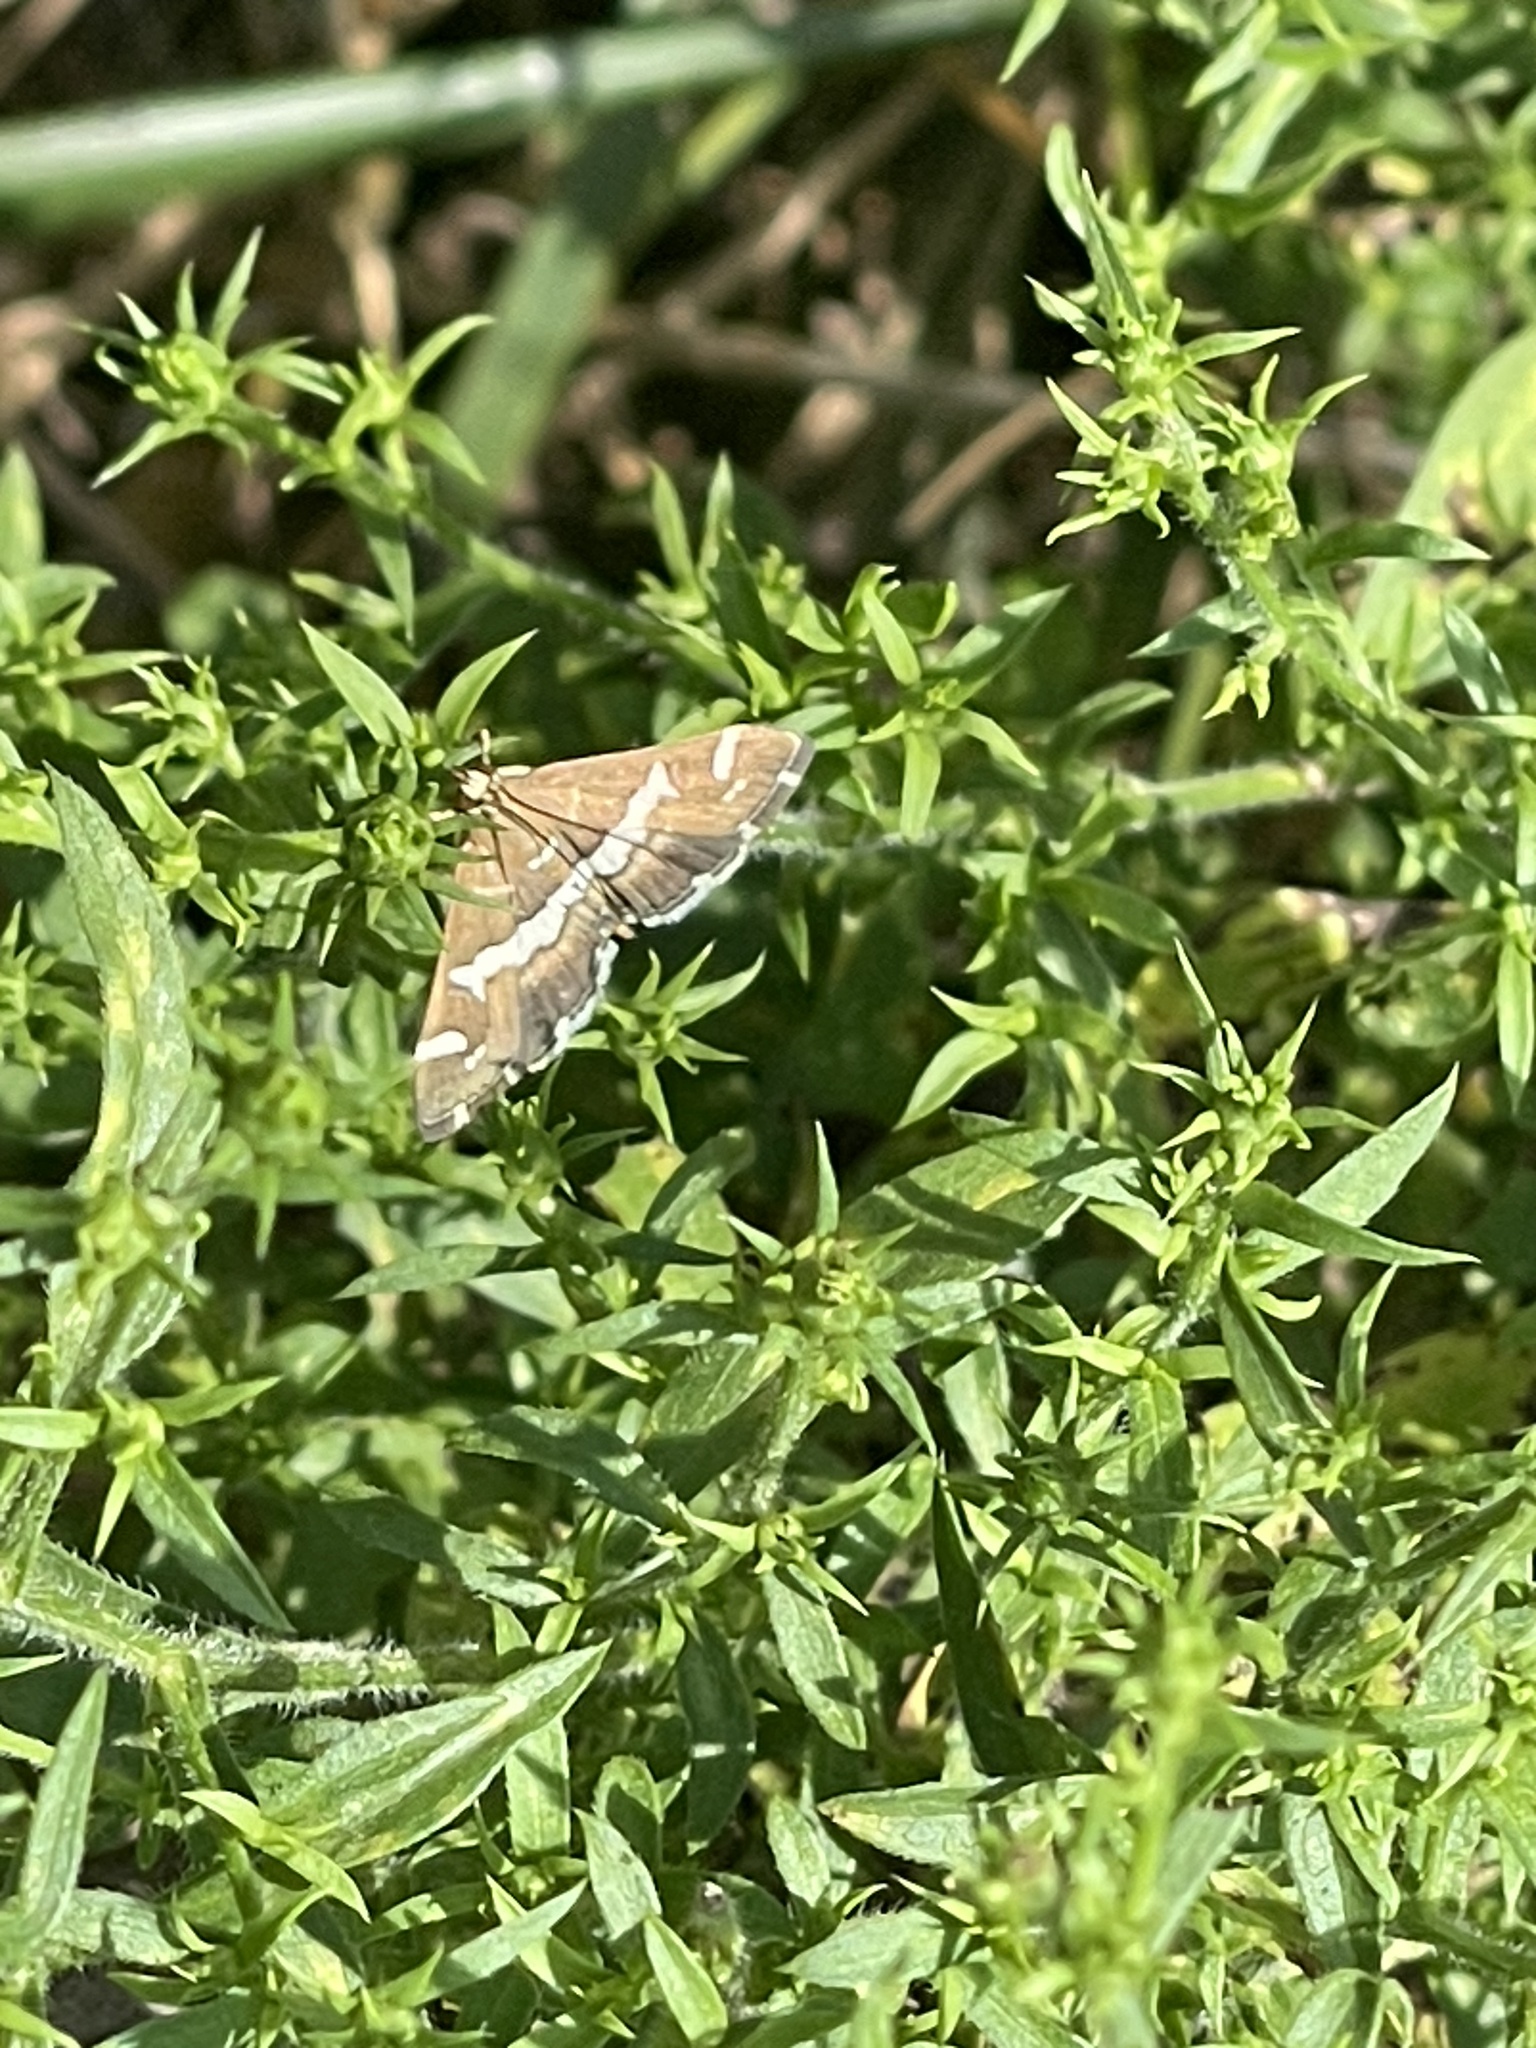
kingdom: Animalia
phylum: Arthropoda
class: Insecta
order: Lepidoptera
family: Crambidae
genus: Spoladea
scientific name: Spoladea recurvalis
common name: Beet webworm moth
